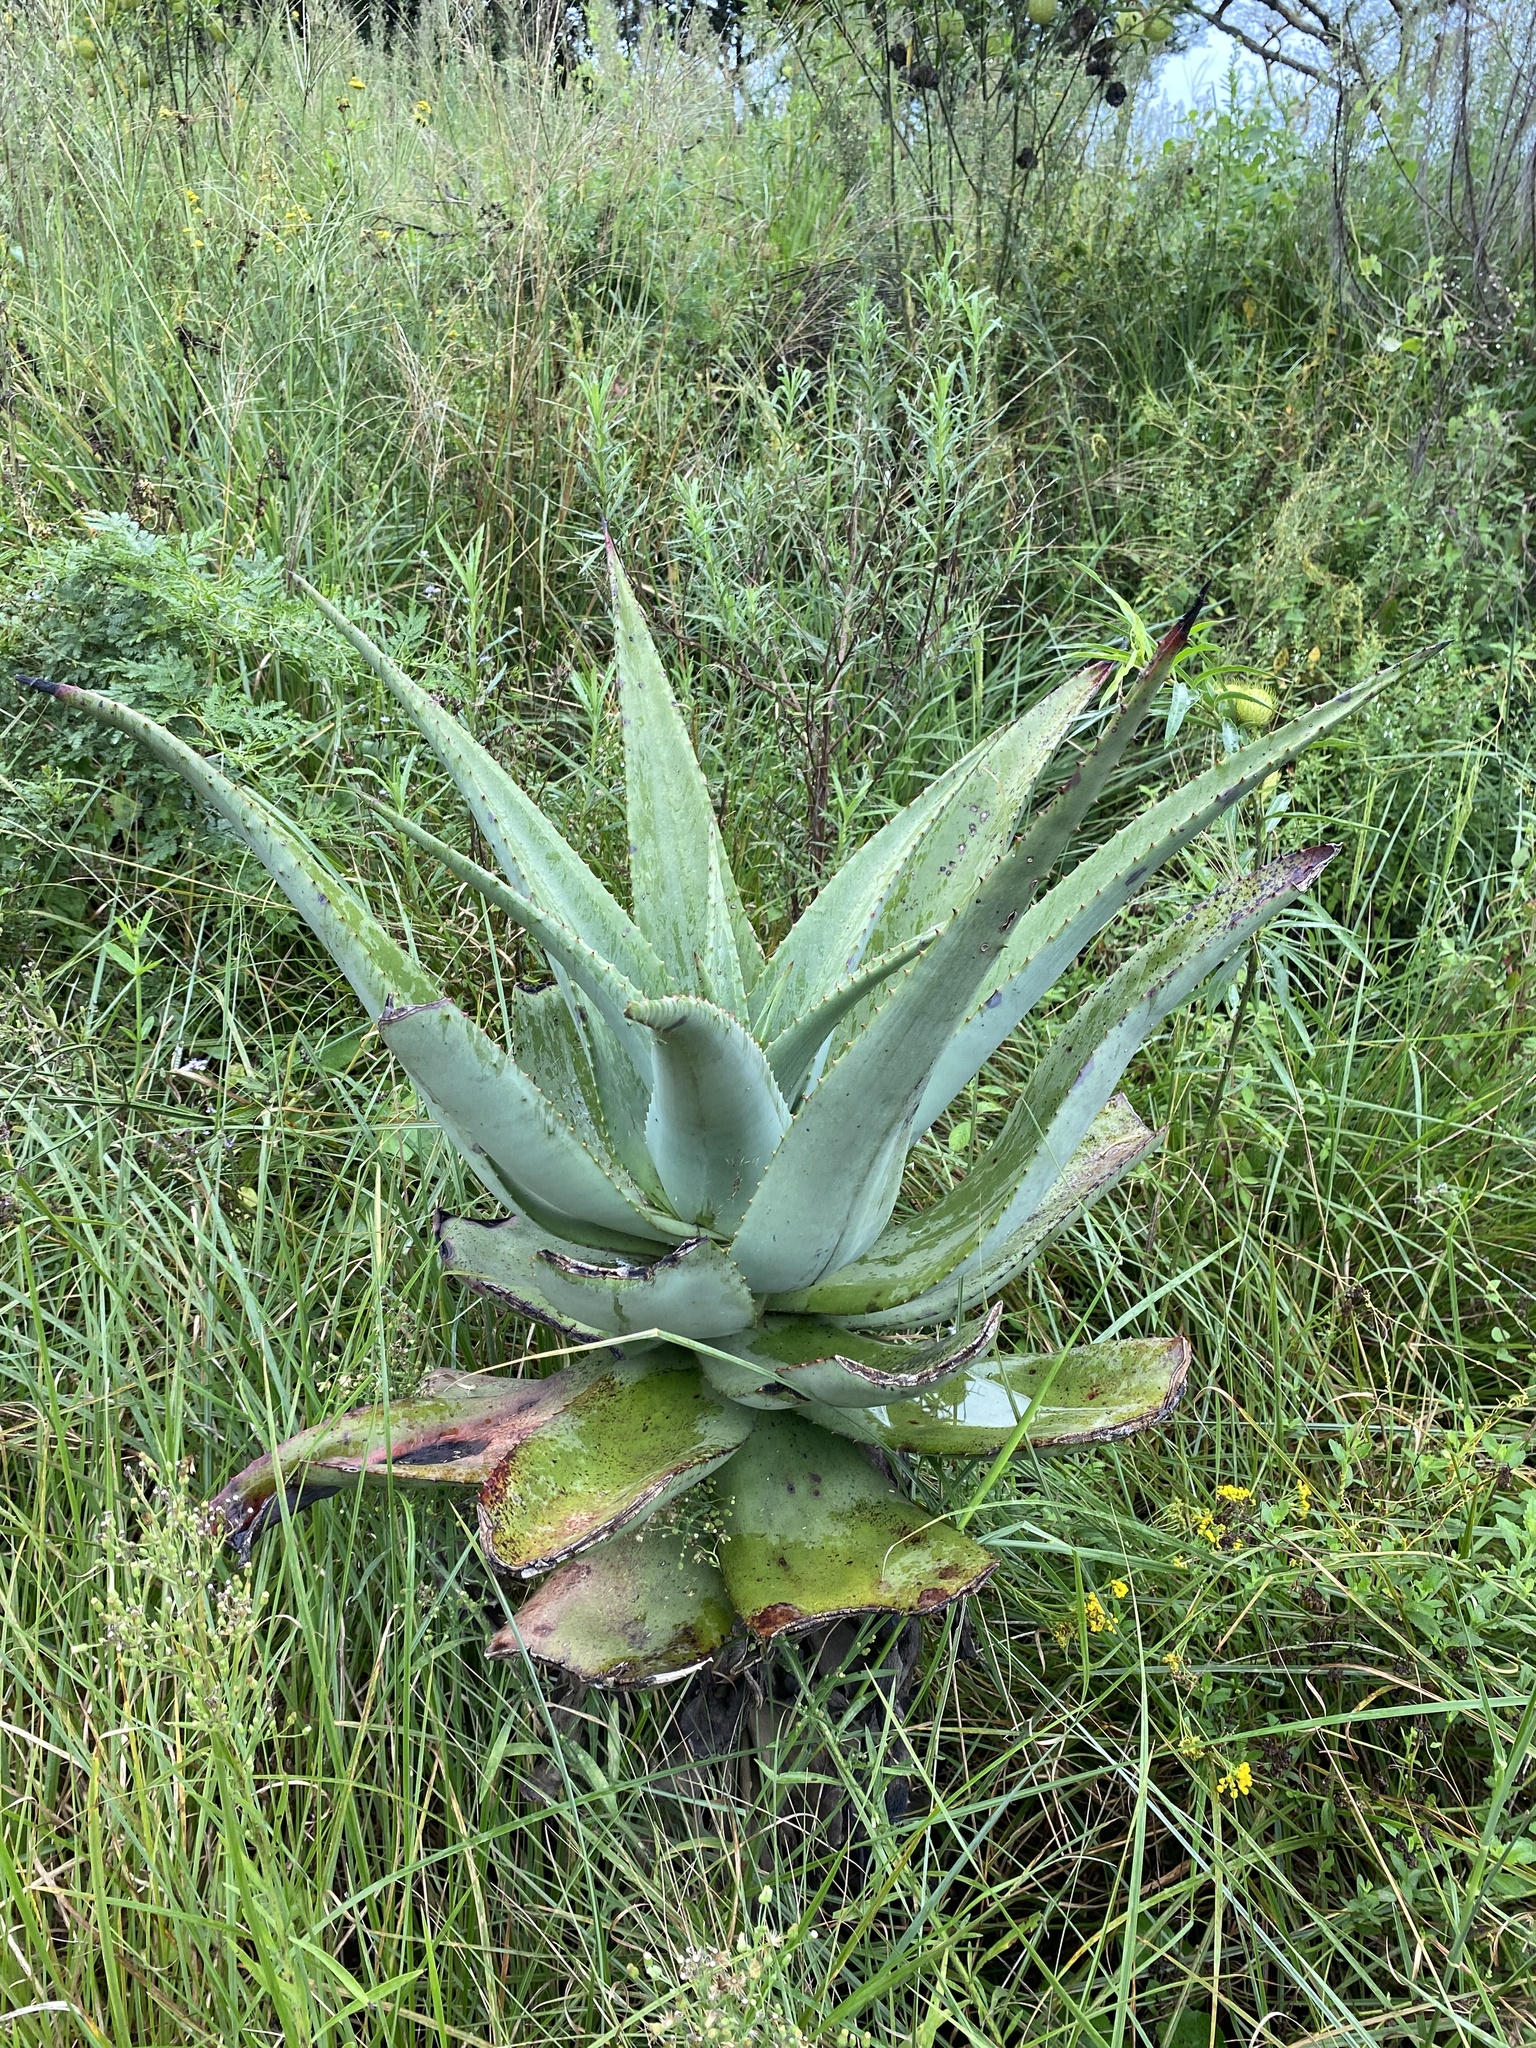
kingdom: Plantae
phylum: Tracheophyta
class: Liliopsida
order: Asparagales
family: Asphodelaceae
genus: Aloe
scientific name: Aloe candelabrum
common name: Candelabra aloe
